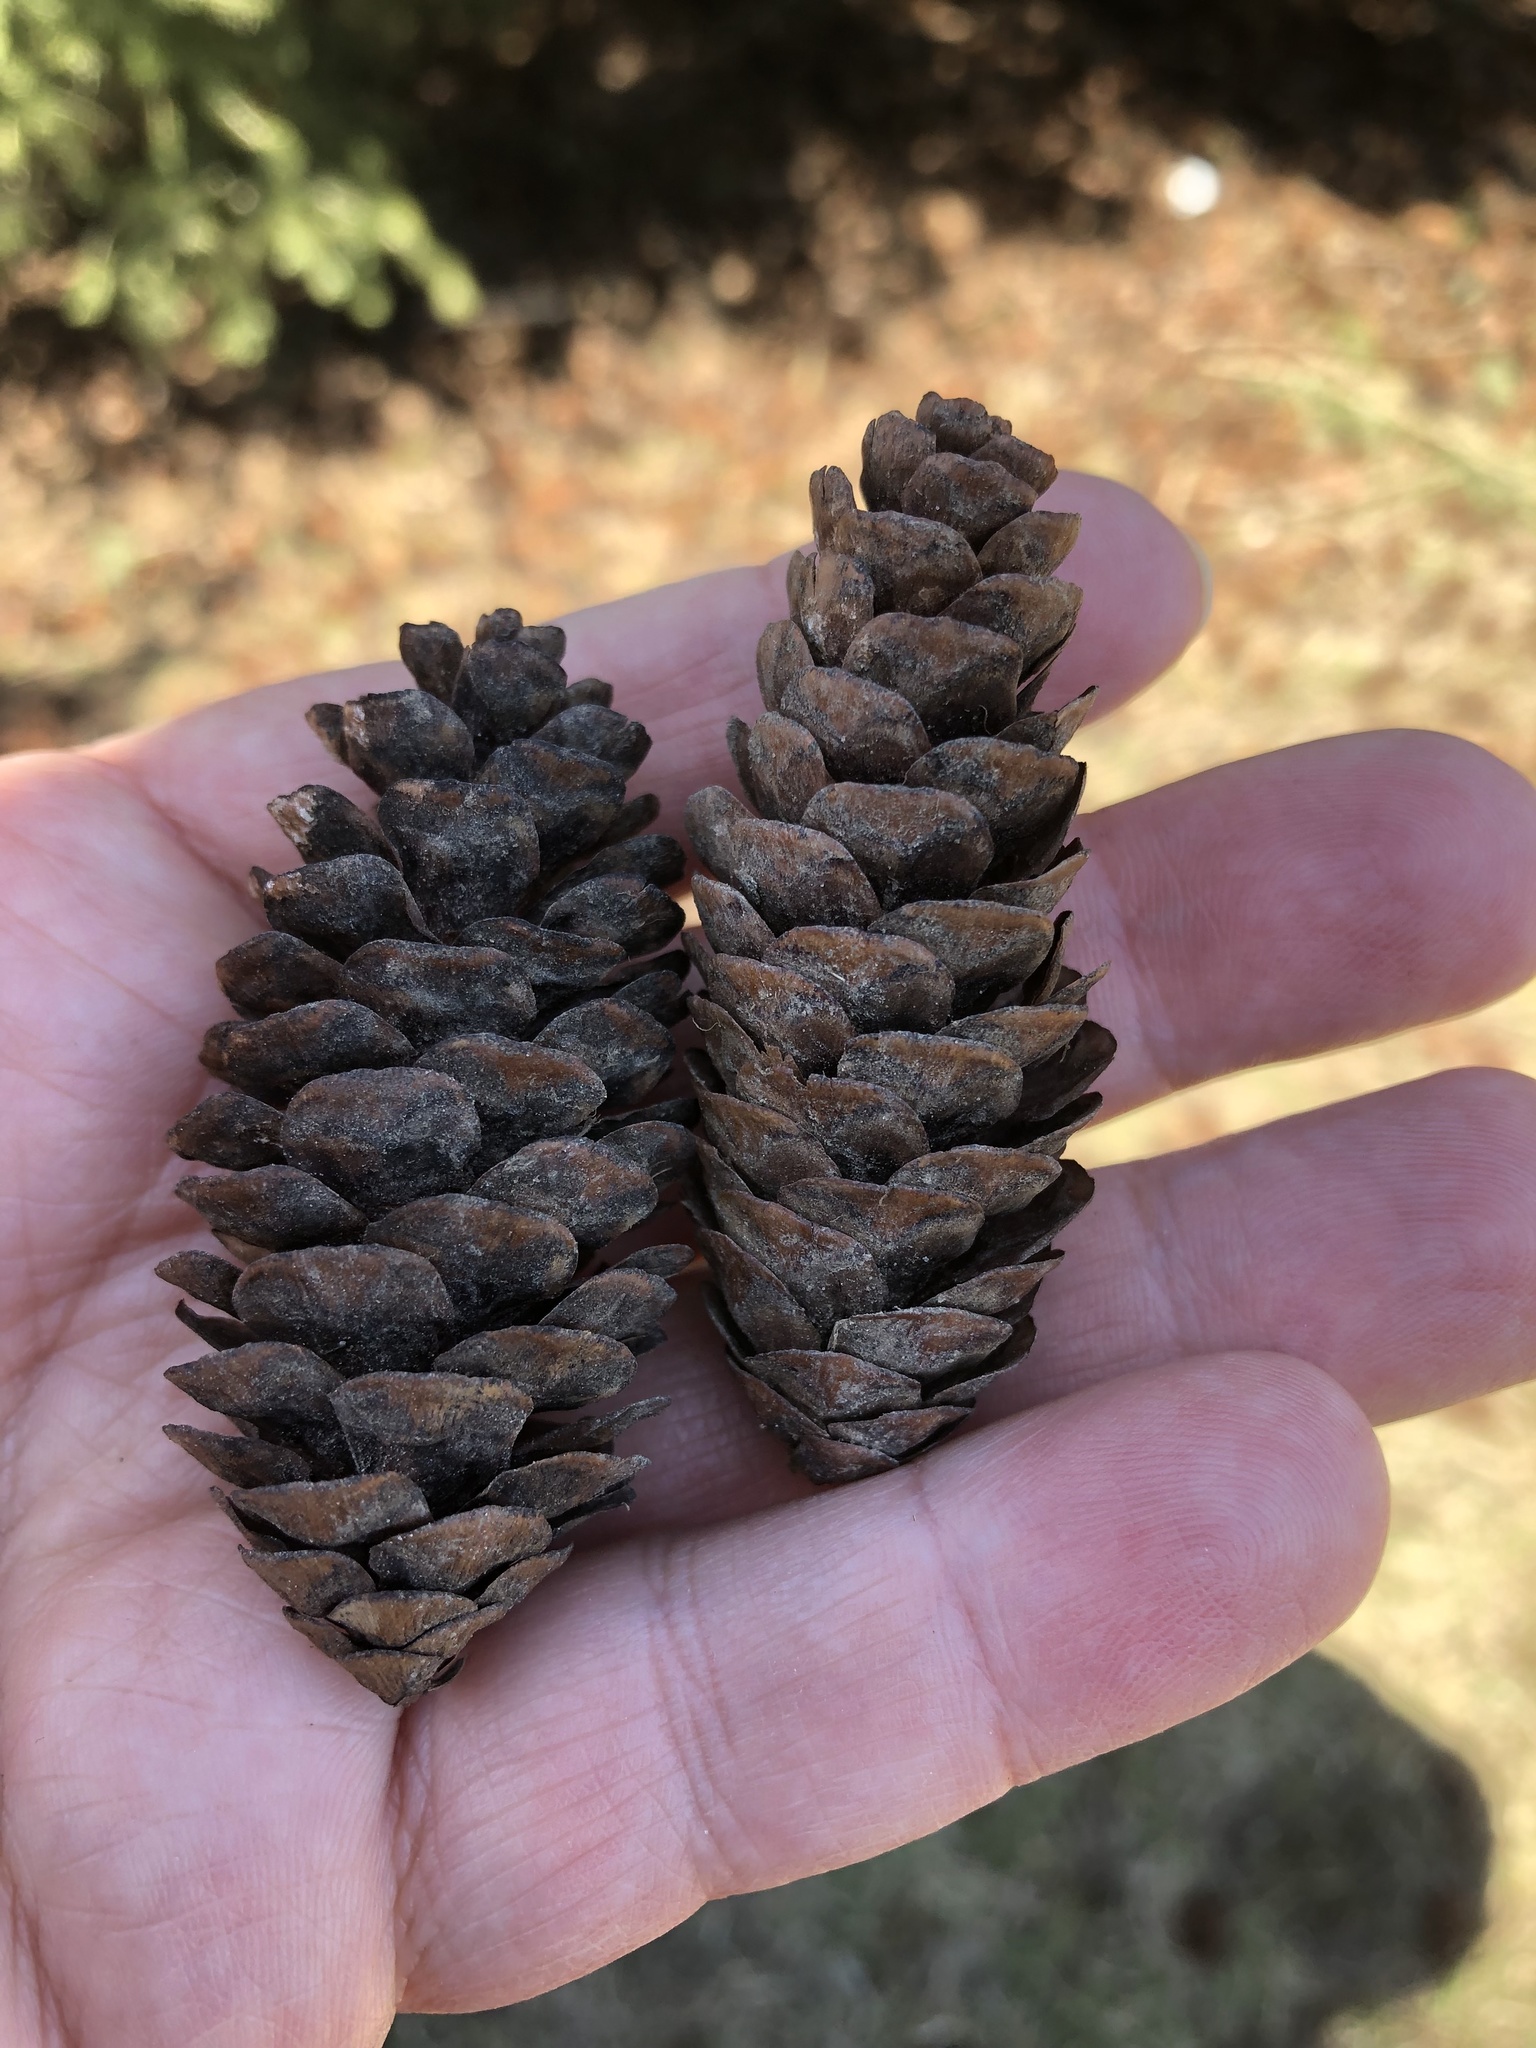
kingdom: Plantae
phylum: Tracheophyta
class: Pinopsida
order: Pinales
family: Pinaceae
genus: Picea
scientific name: Picea glauca
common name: White spruce
